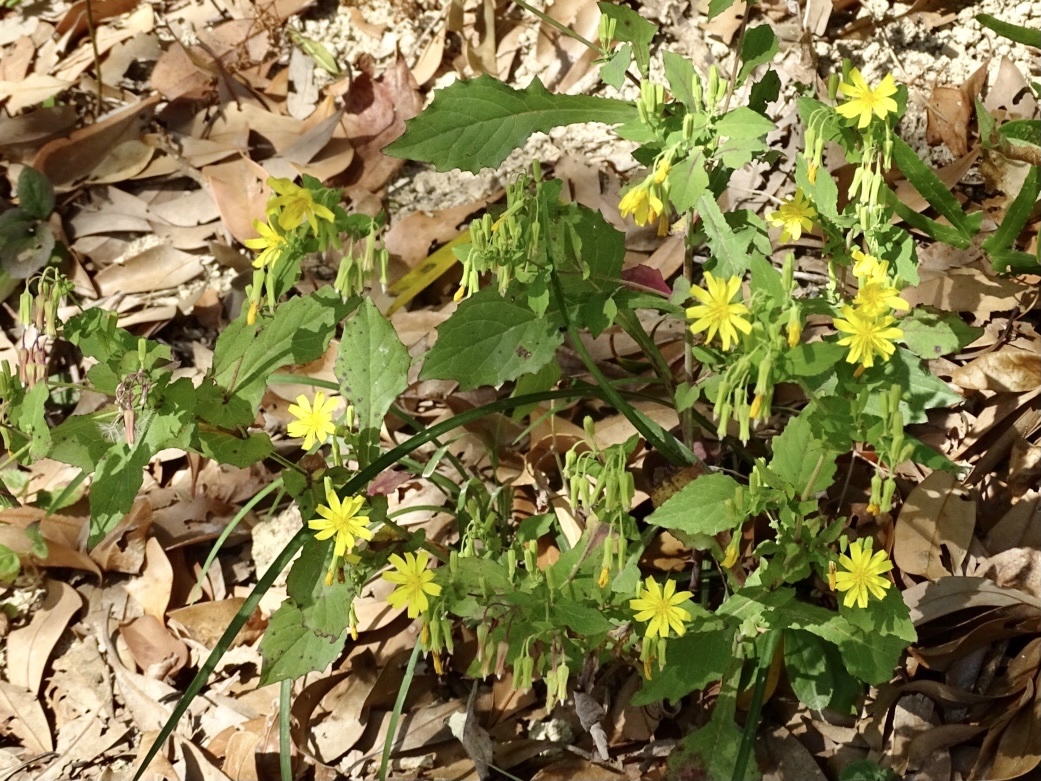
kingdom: Plantae
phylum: Tracheophyta
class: Magnoliopsida
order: Asterales
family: Asteraceae
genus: Crepidiastrum
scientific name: Crepidiastrum denticulatum
